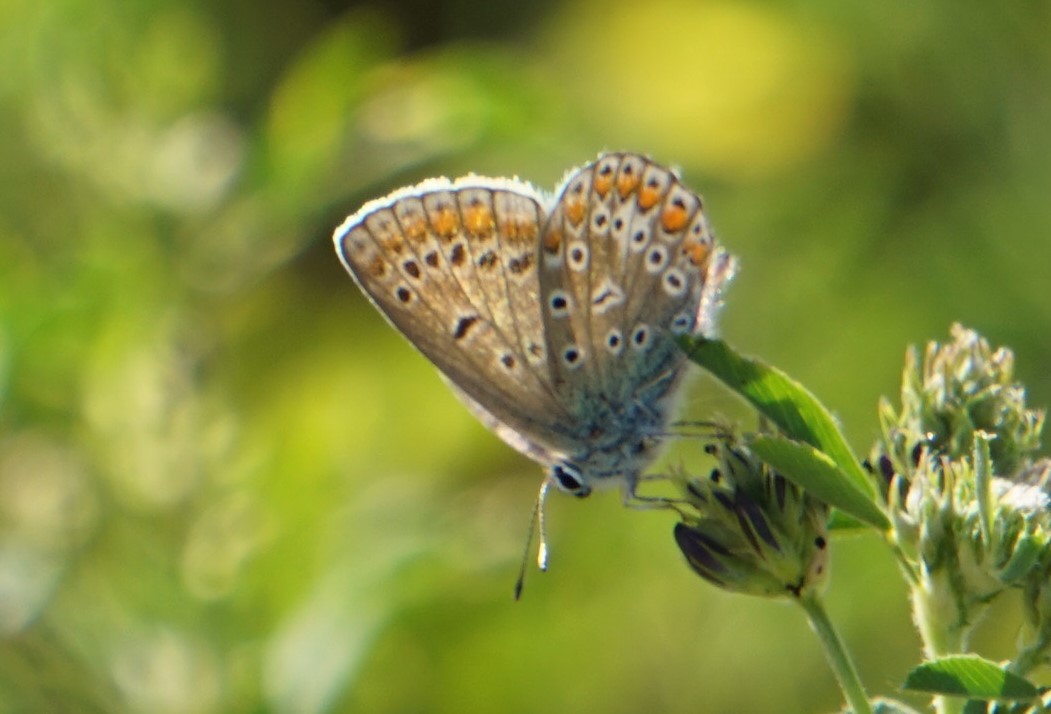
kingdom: Animalia
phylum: Arthropoda
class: Insecta
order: Lepidoptera
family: Lycaenidae
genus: Polyommatus
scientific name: Polyommatus icarus
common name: Common blue
